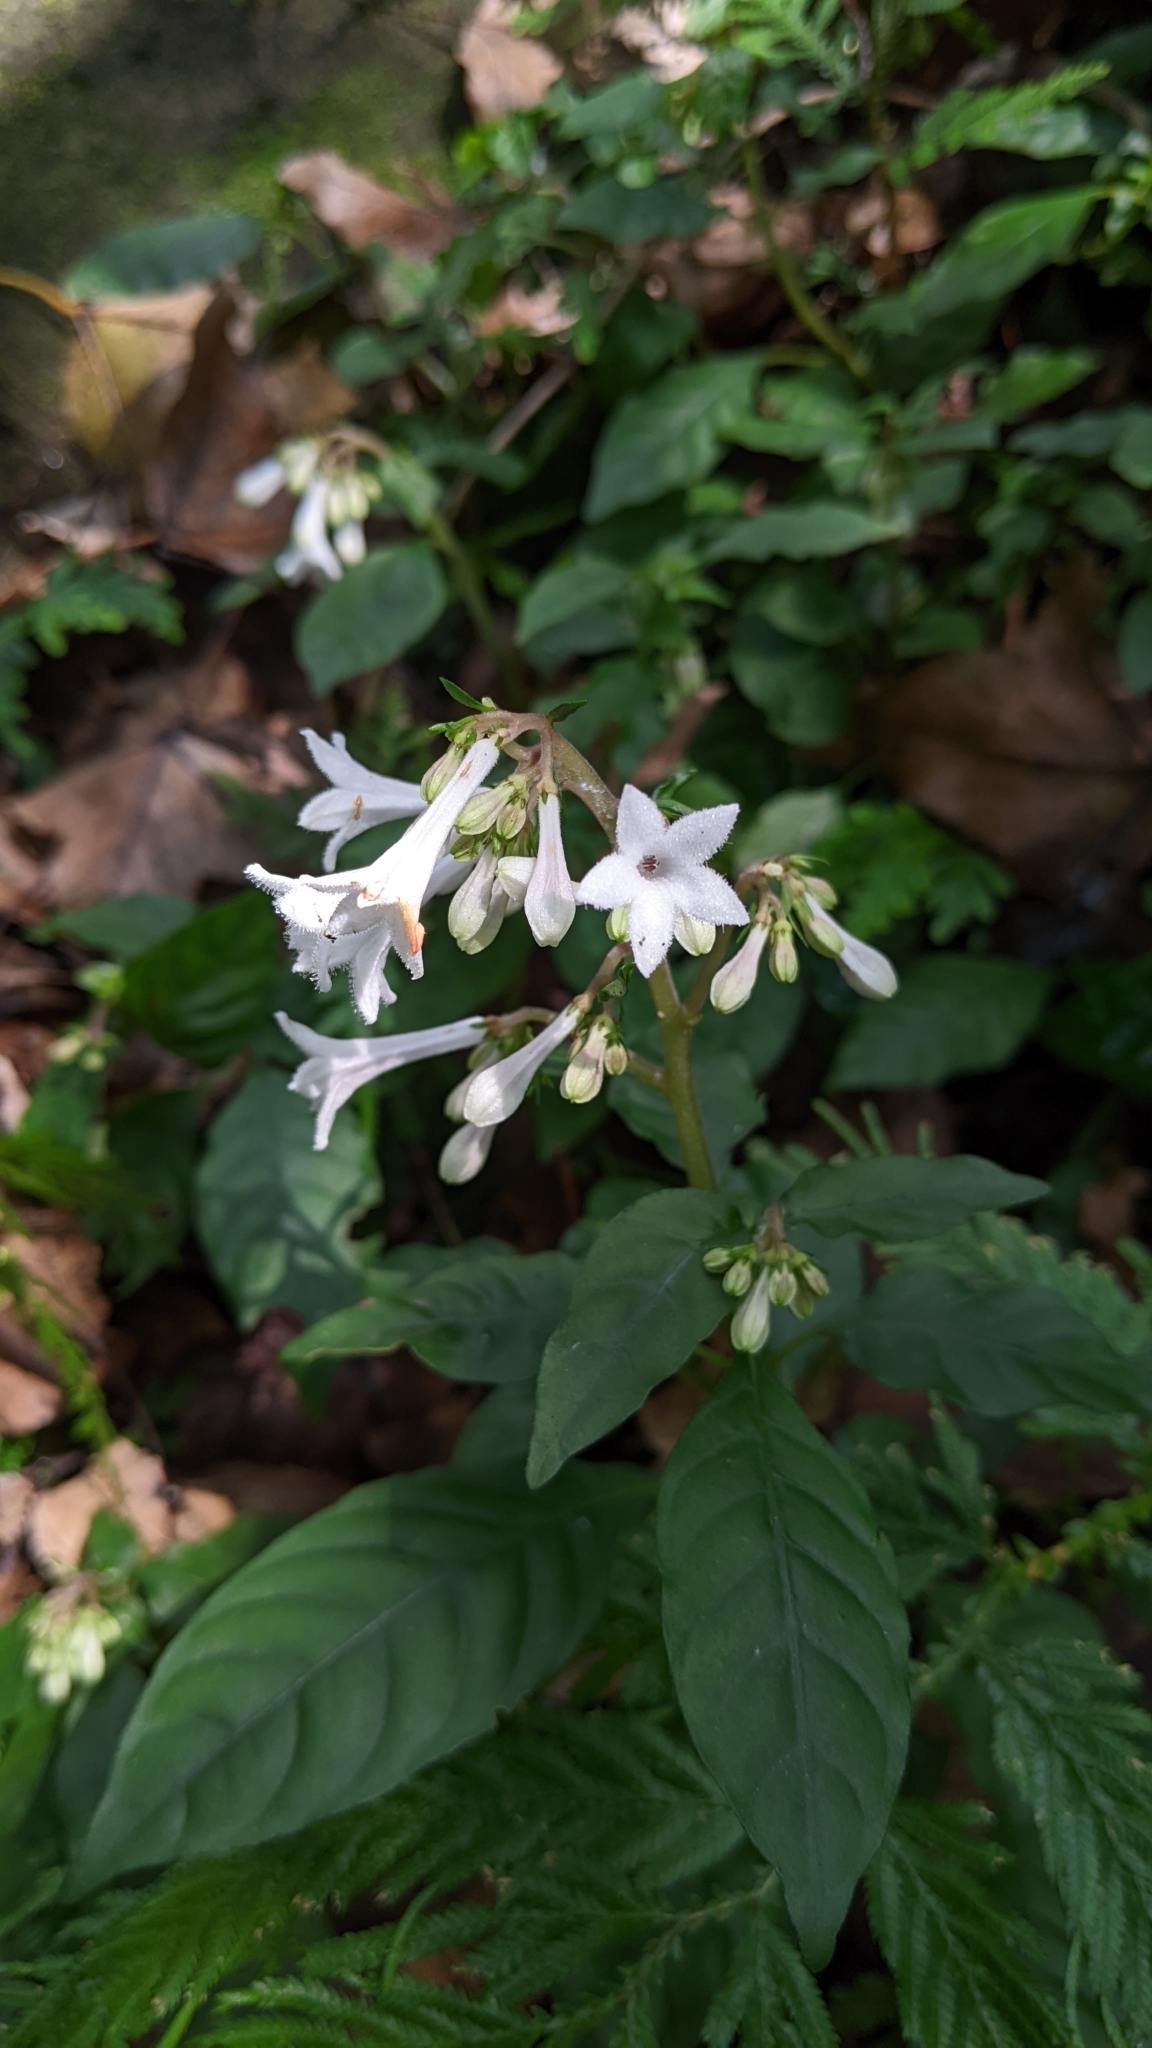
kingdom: Plantae
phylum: Tracheophyta
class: Magnoliopsida
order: Gentianales
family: Rubiaceae
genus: Ophiorrhiza
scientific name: Ophiorrhiza japonica
